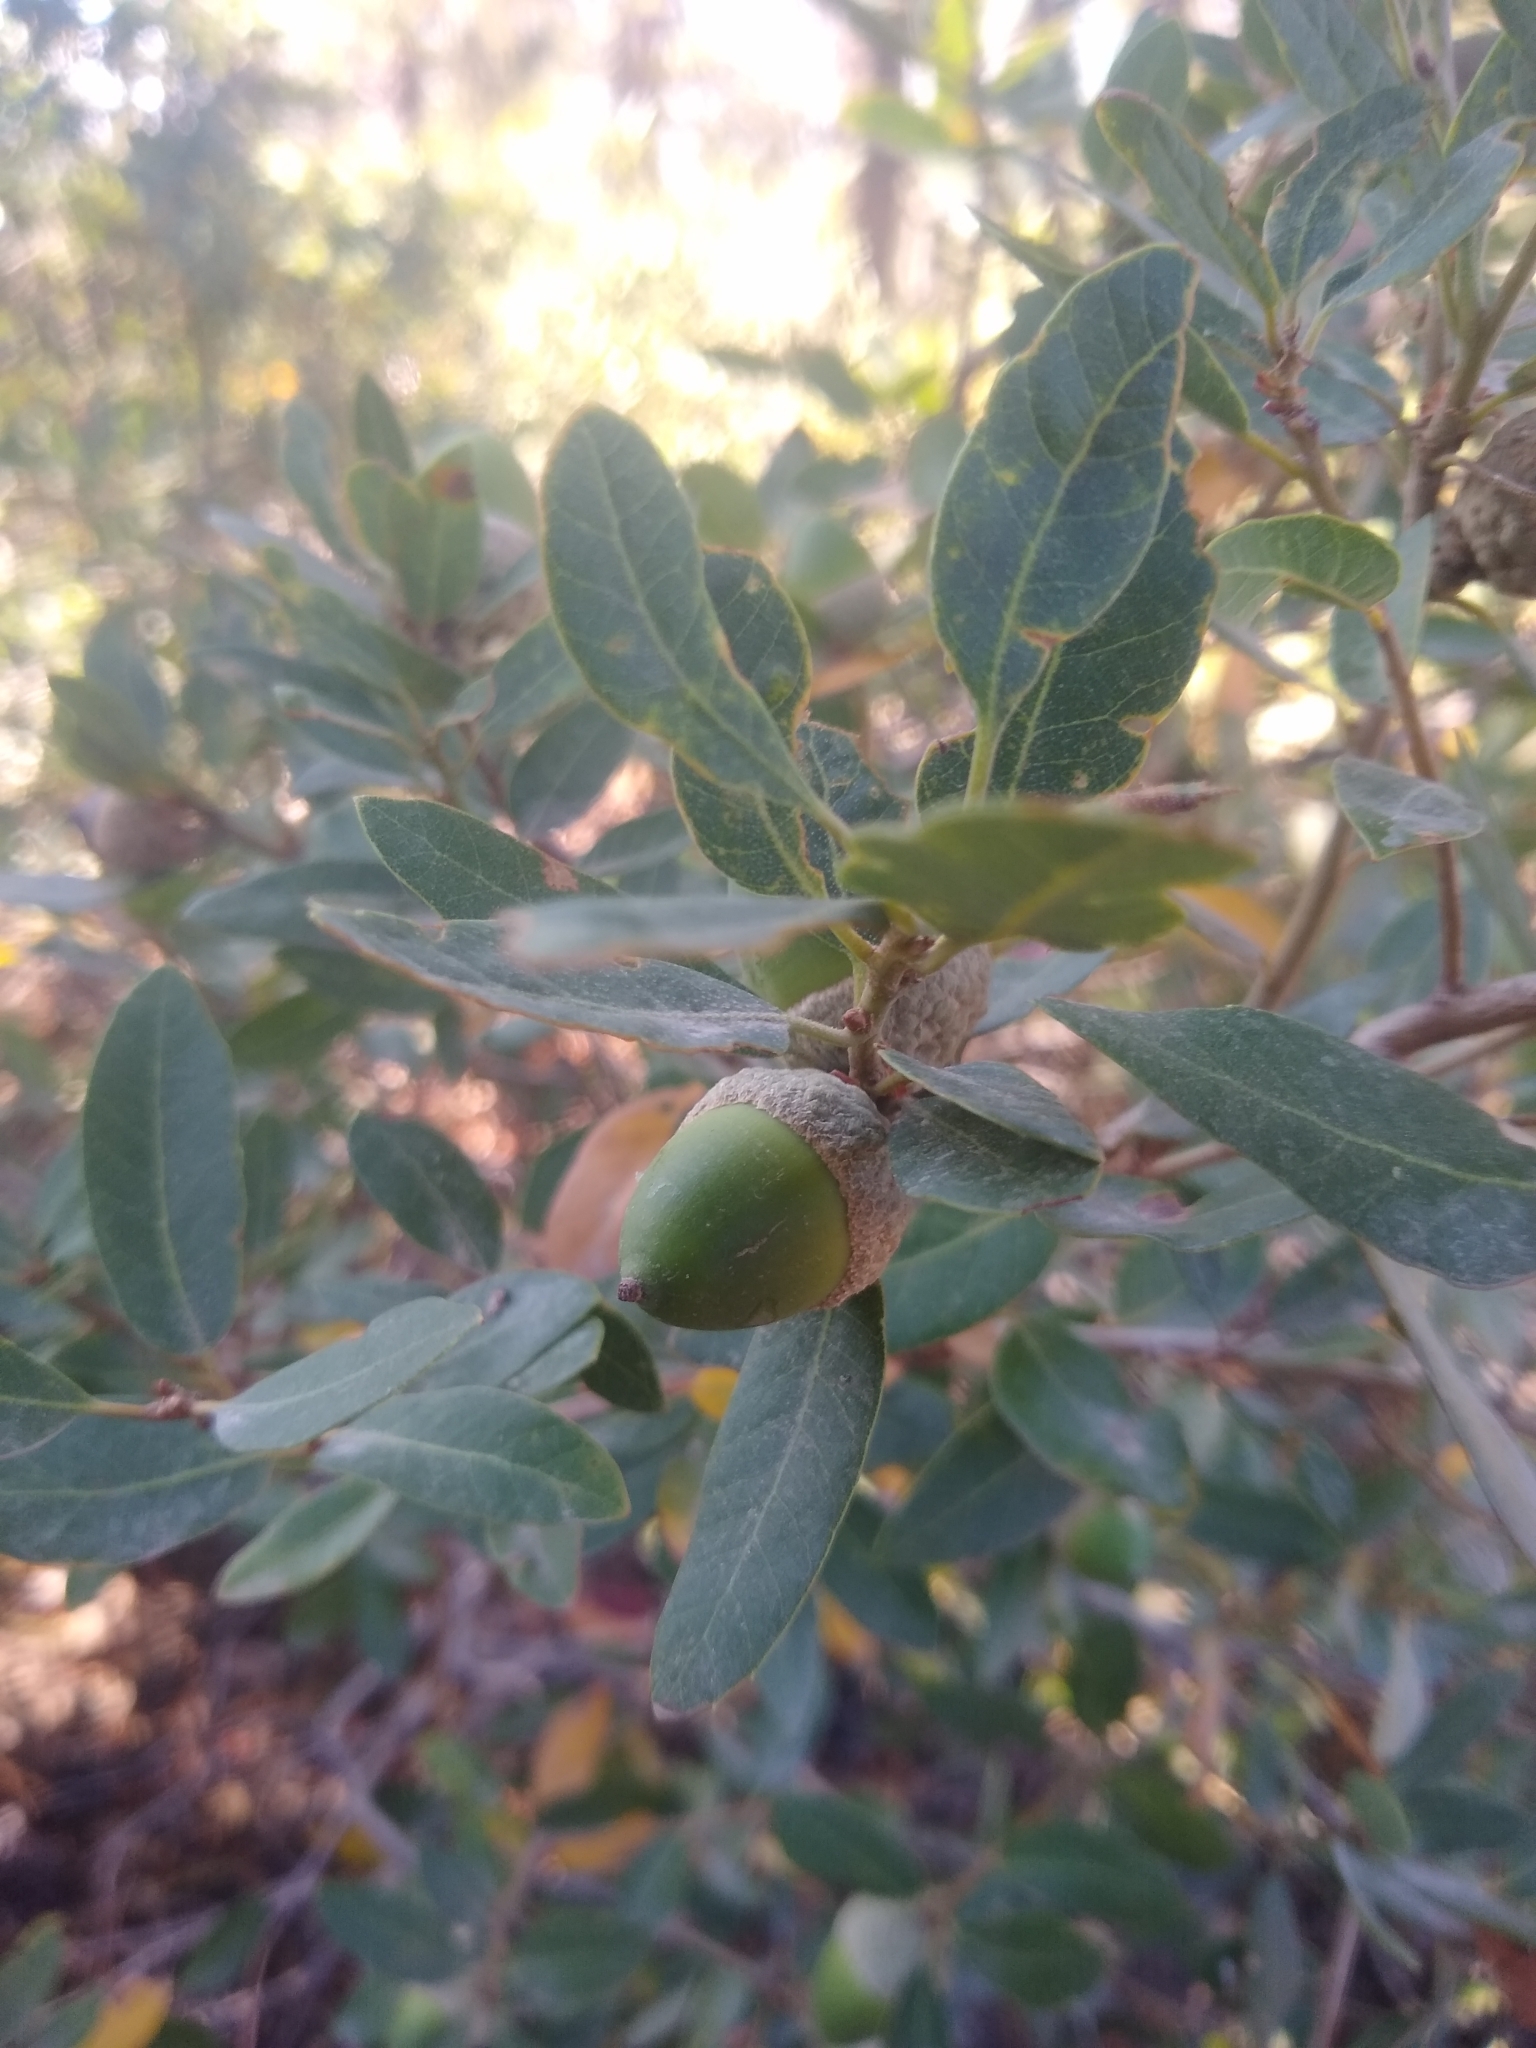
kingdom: Plantae
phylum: Tracheophyta
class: Magnoliopsida
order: Fagales
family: Fagaceae
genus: Quercus
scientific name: Quercus vacciniifolia
